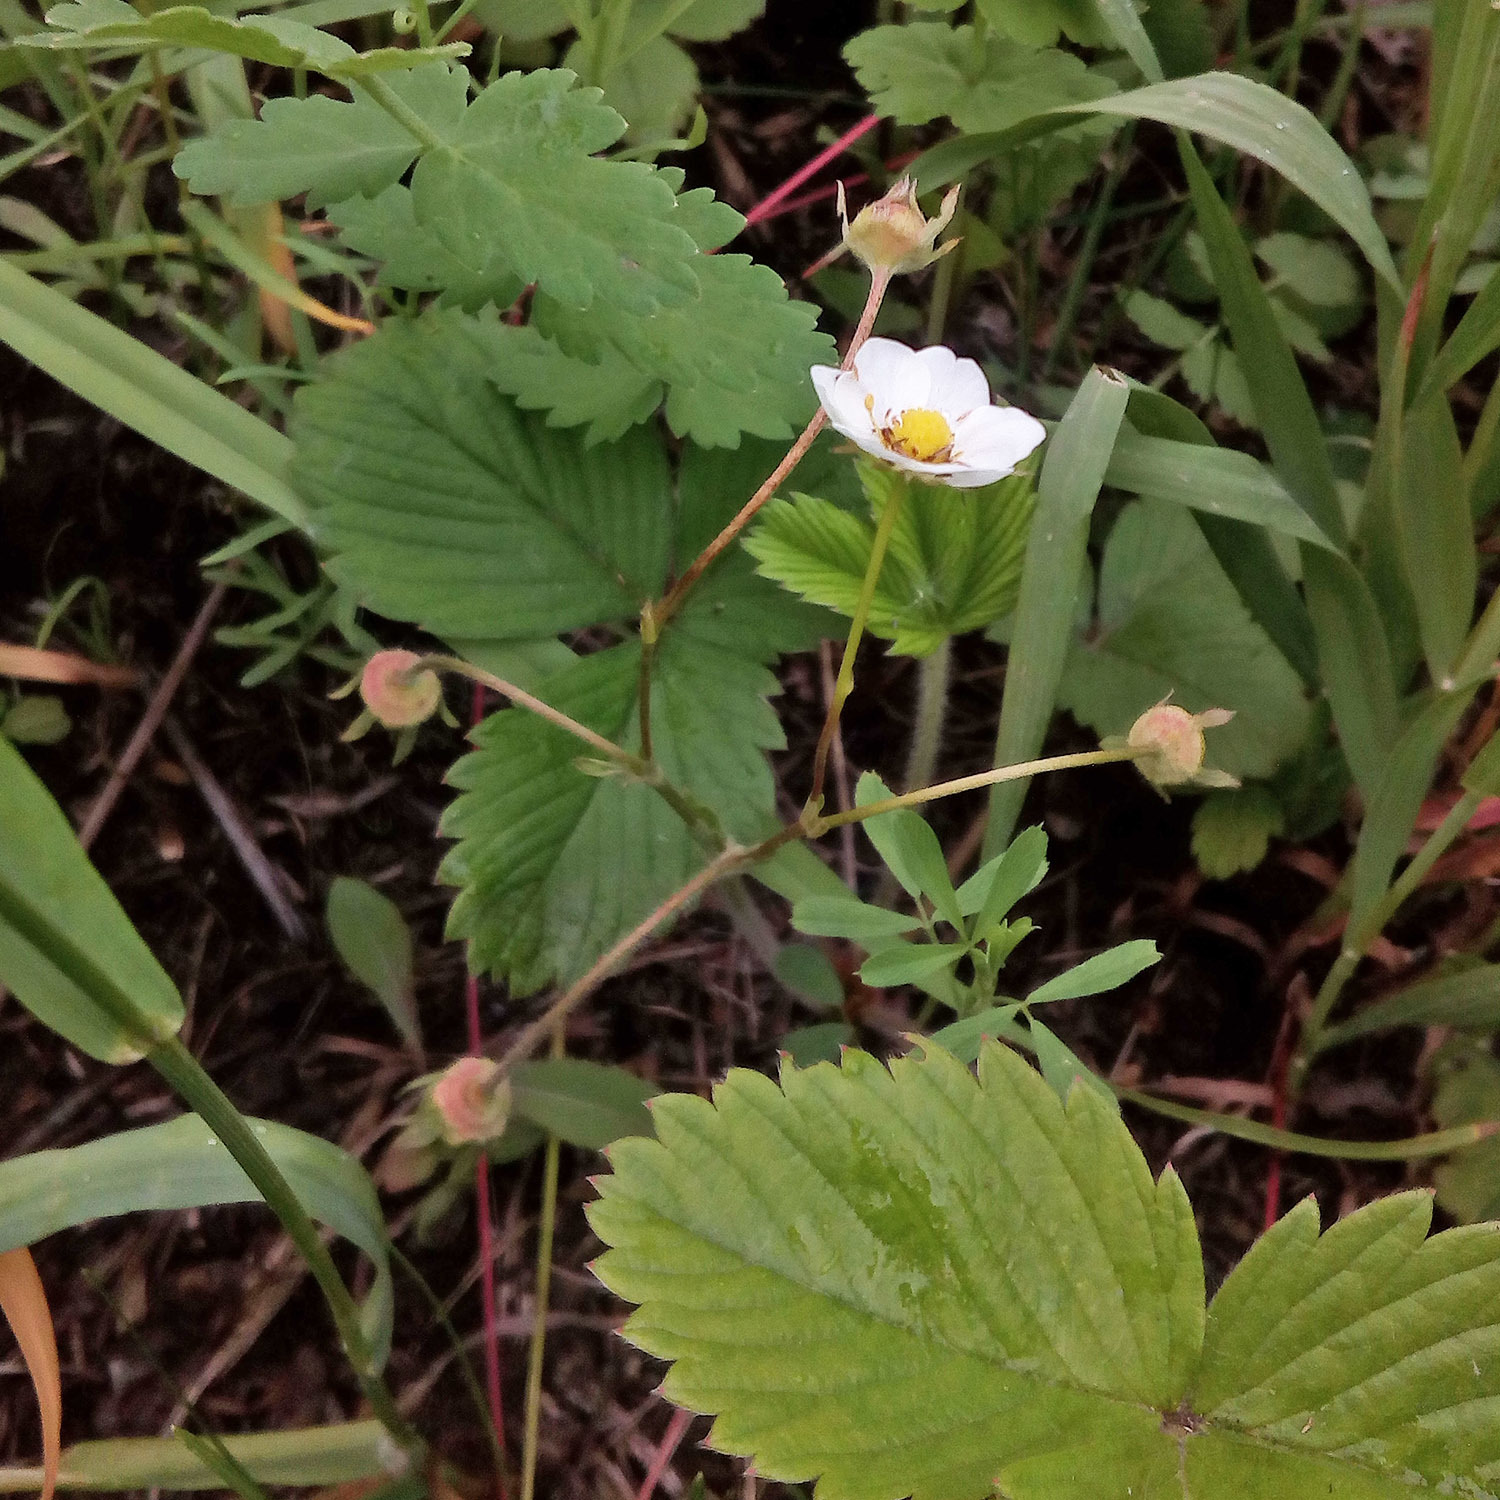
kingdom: Plantae
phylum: Tracheophyta
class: Magnoliopsida
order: Rosales
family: Rosaceae
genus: Fragaria
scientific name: Fragaria viridis
